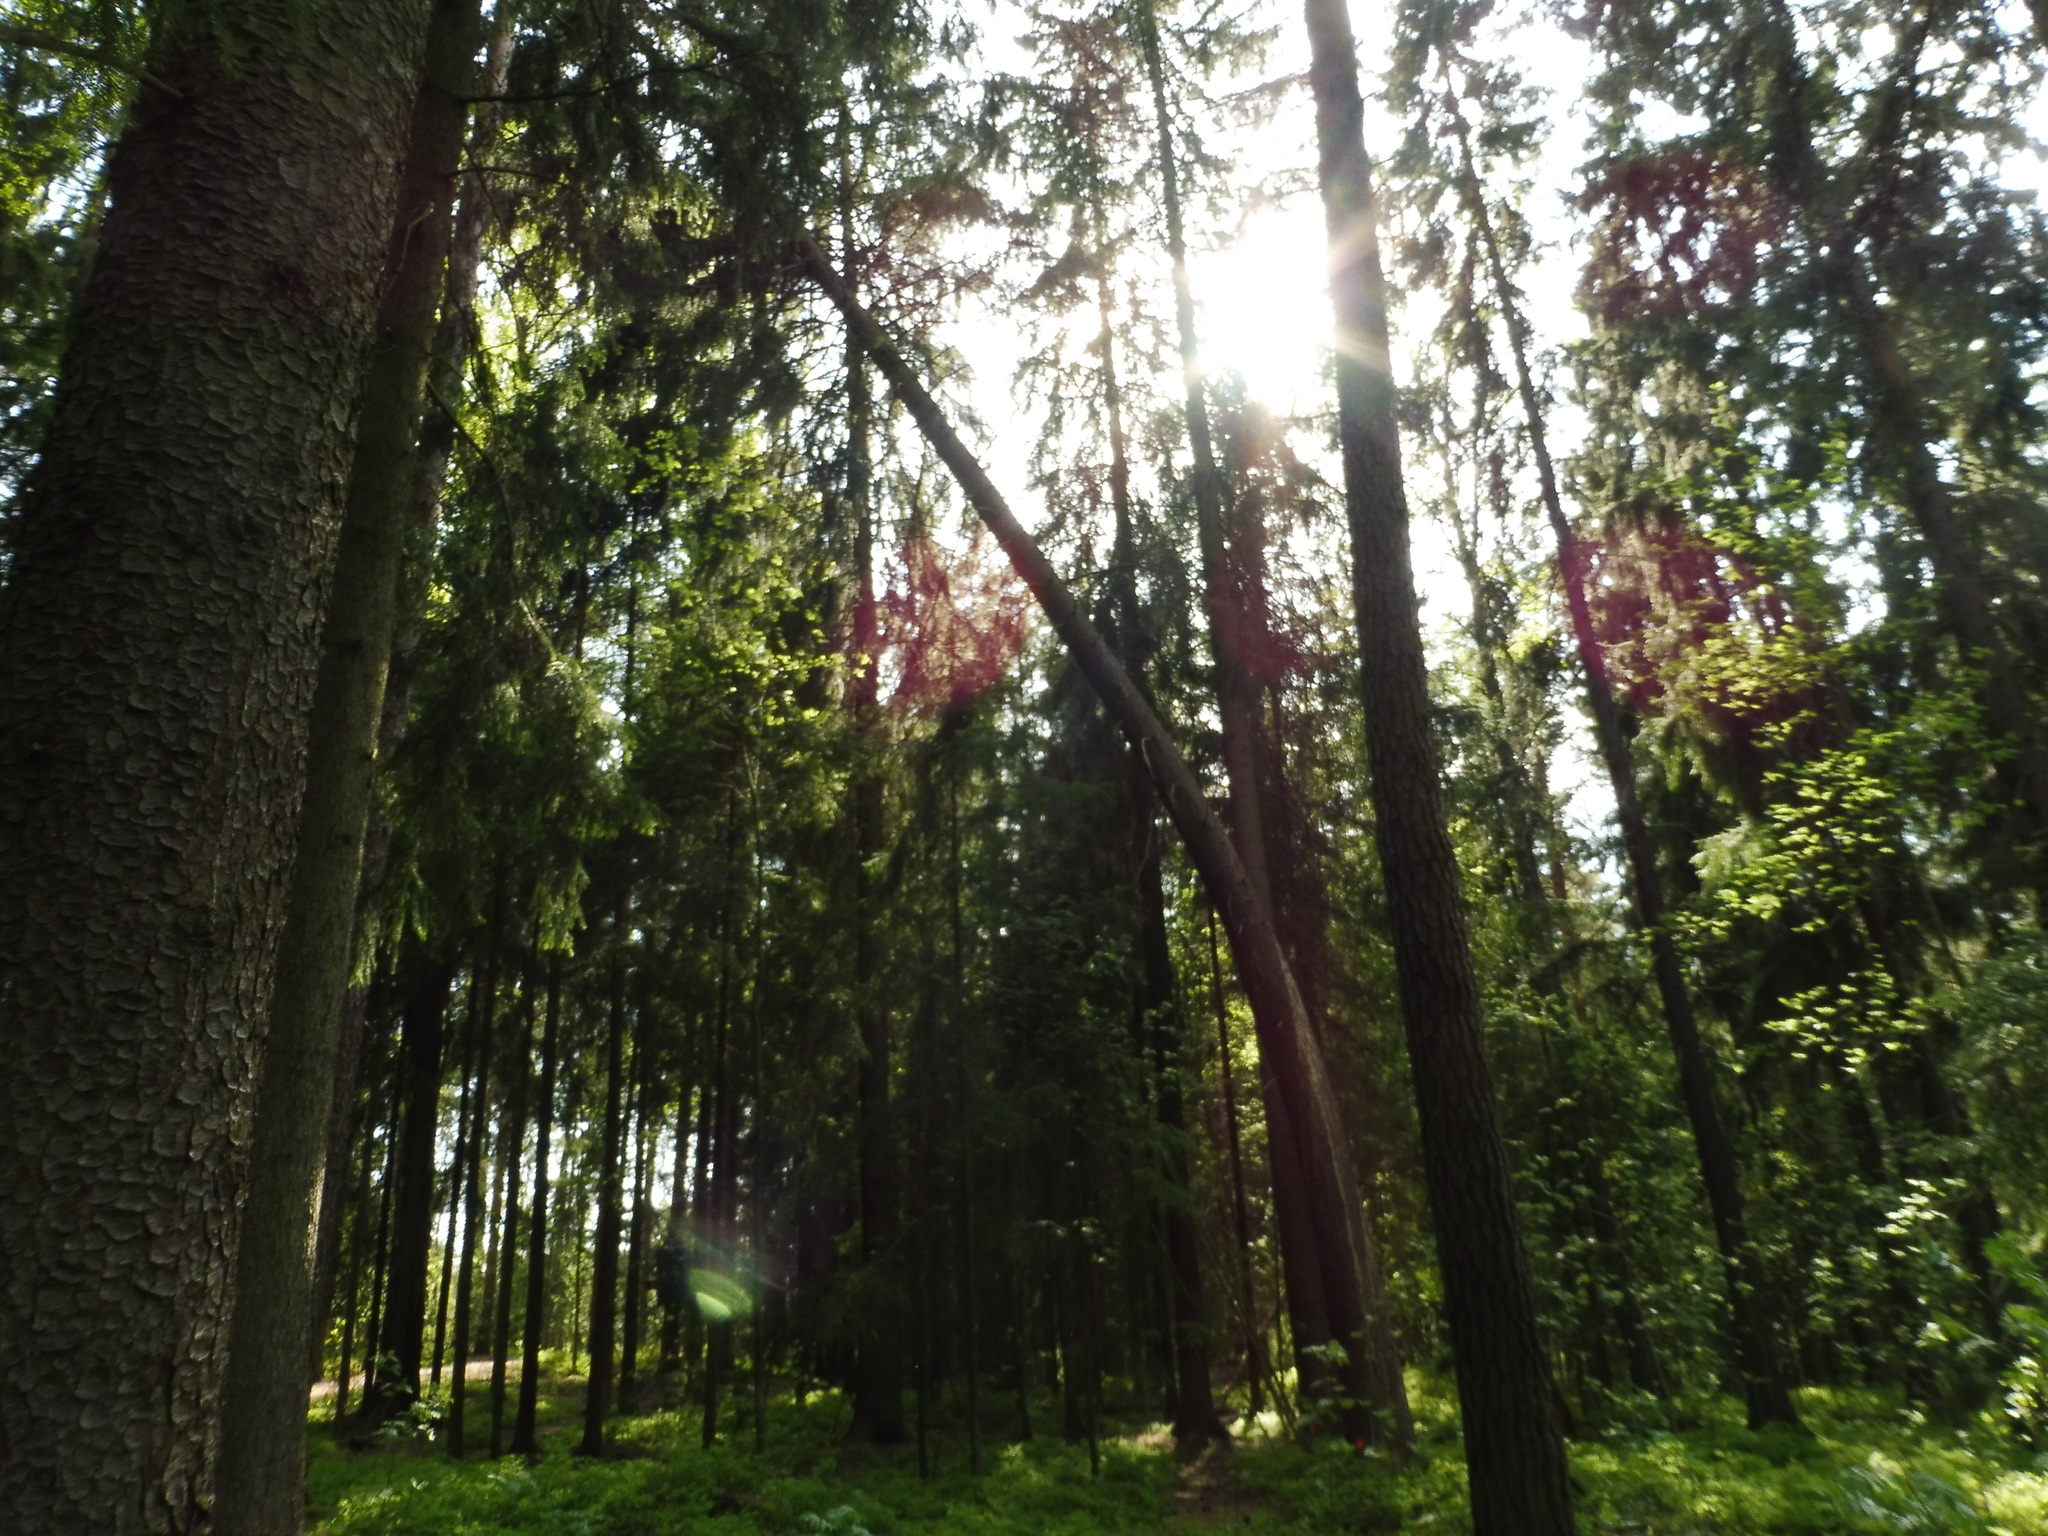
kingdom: Plantae
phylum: Tracheophyta
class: Pinopsida
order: Pinales
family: Pinaceae
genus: Picea
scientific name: Picea abies
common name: Norway spruce
